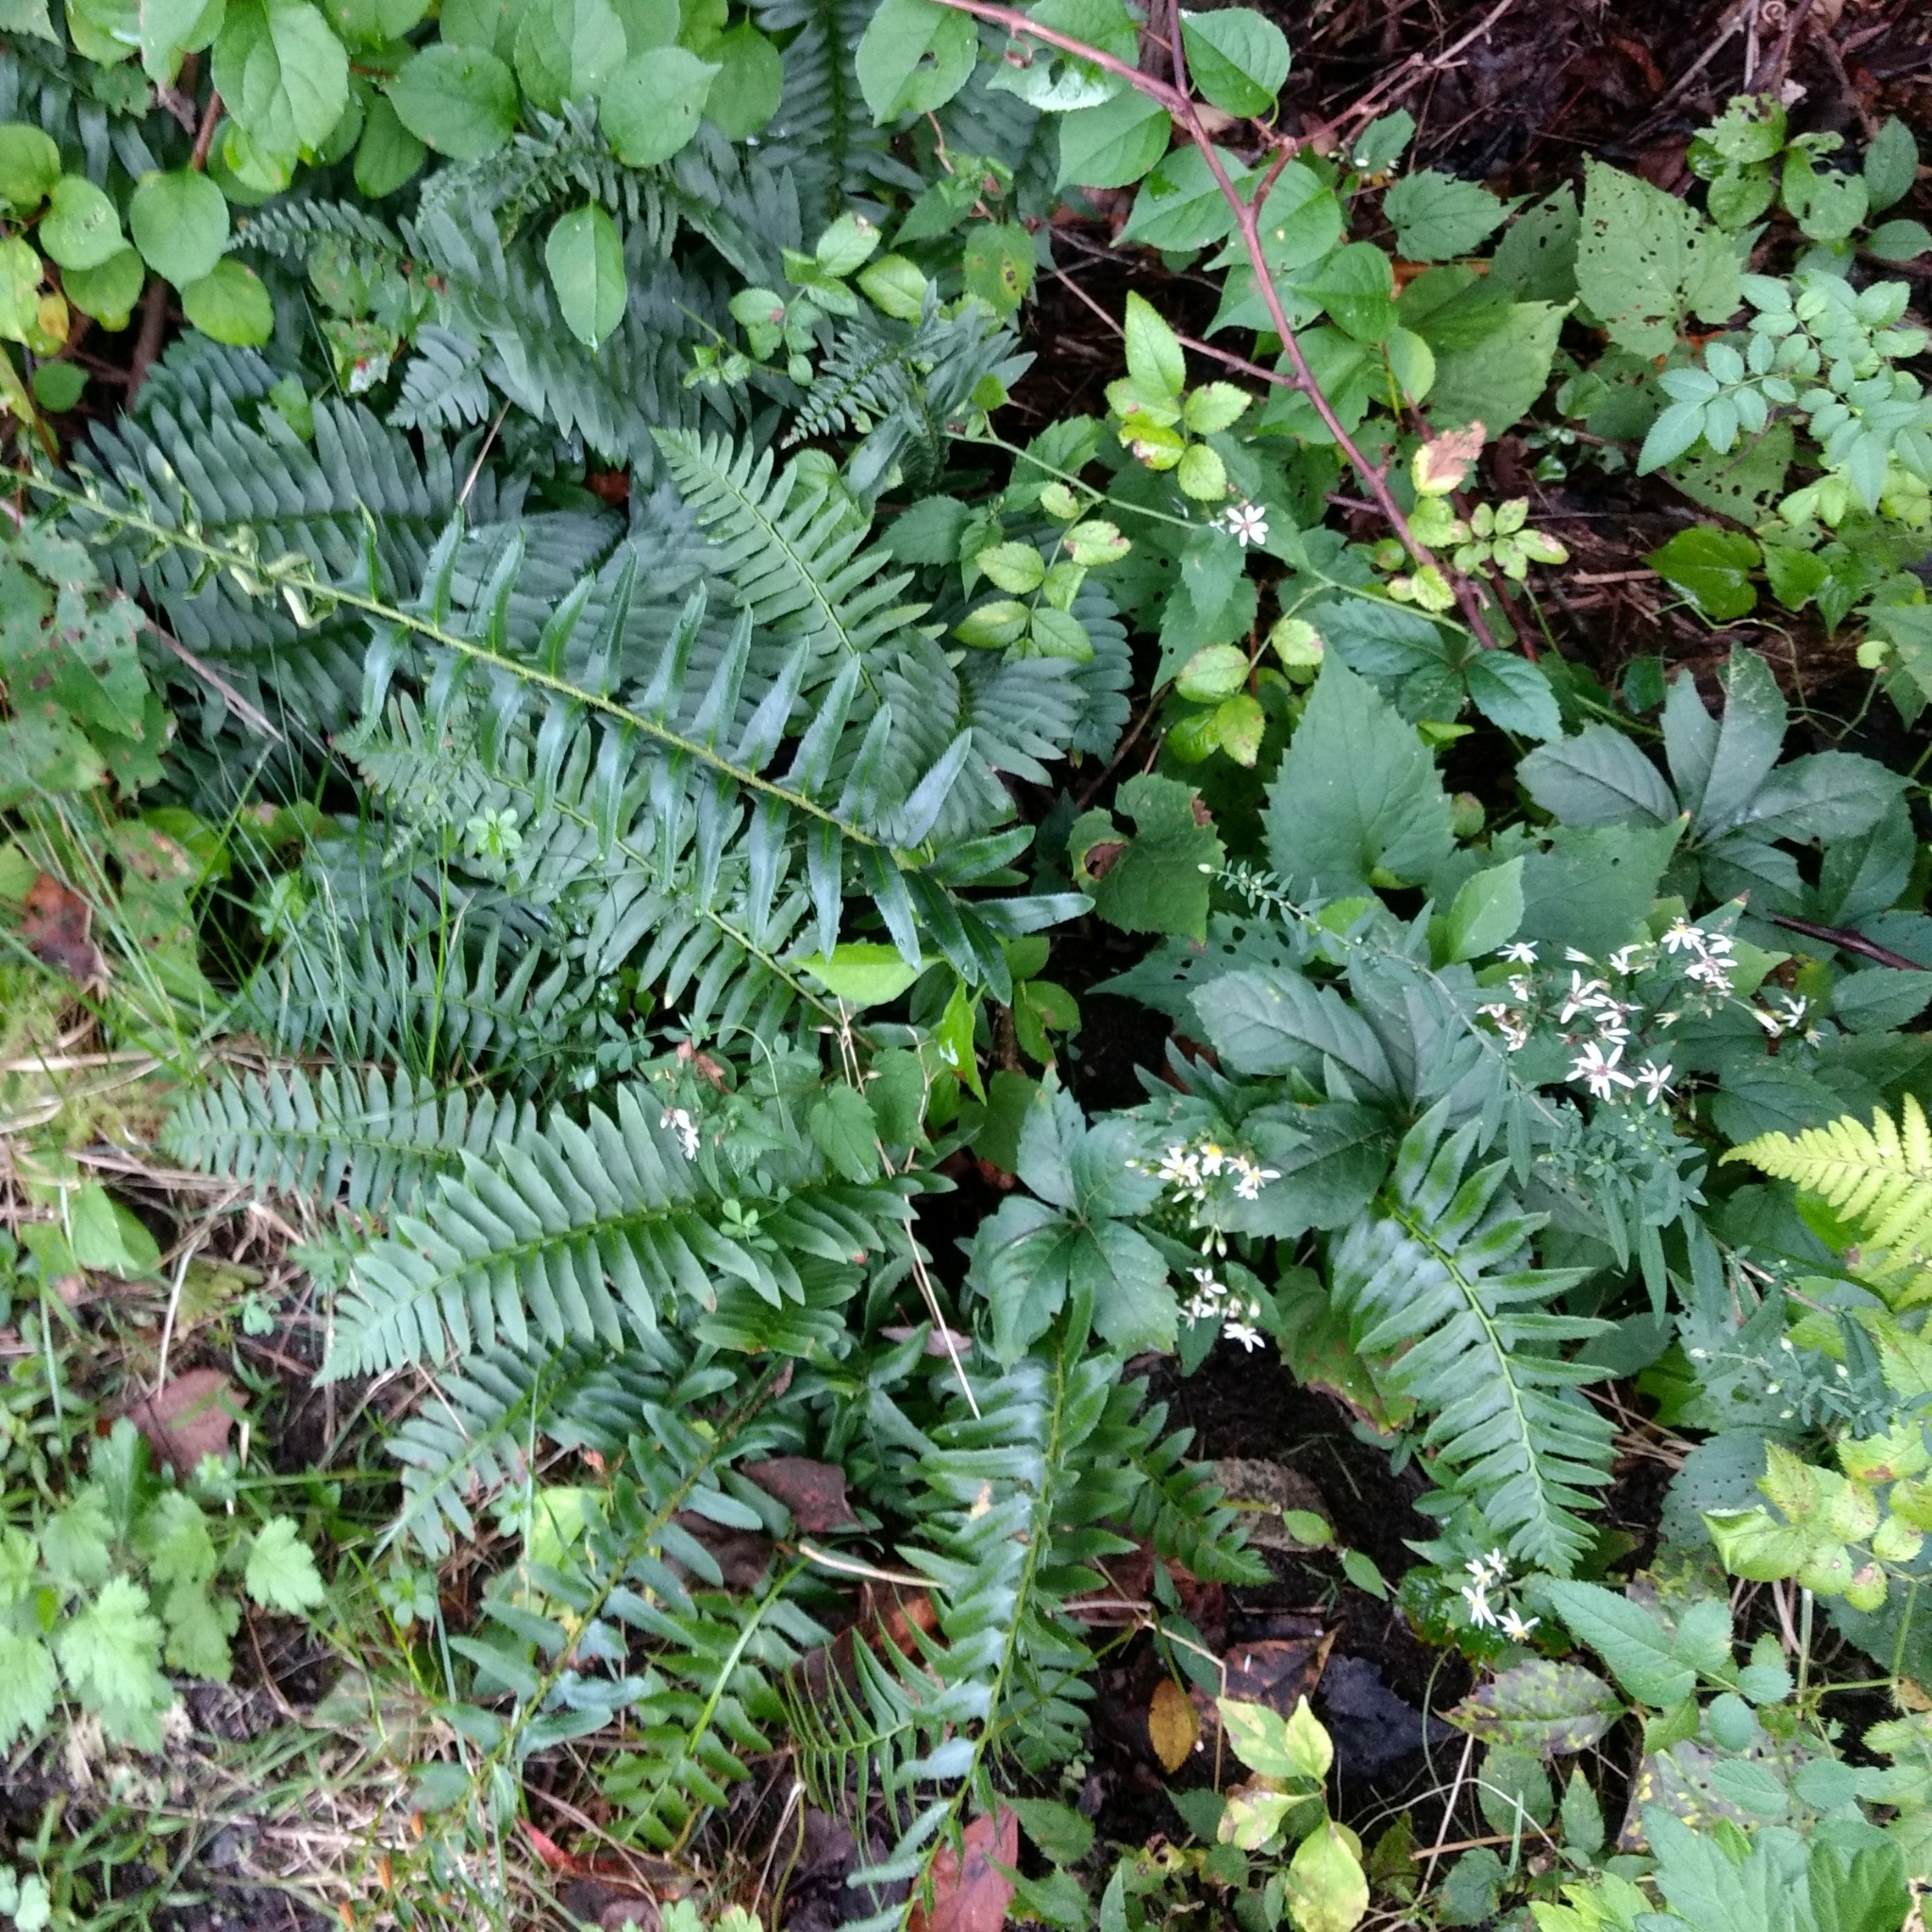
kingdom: Plantae
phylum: Tracheophyta
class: Polypodiopsida
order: Polypodiales
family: Dryopteridaceae
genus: Polystichum
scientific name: Polystichum acrostichoides
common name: Christmas fern
